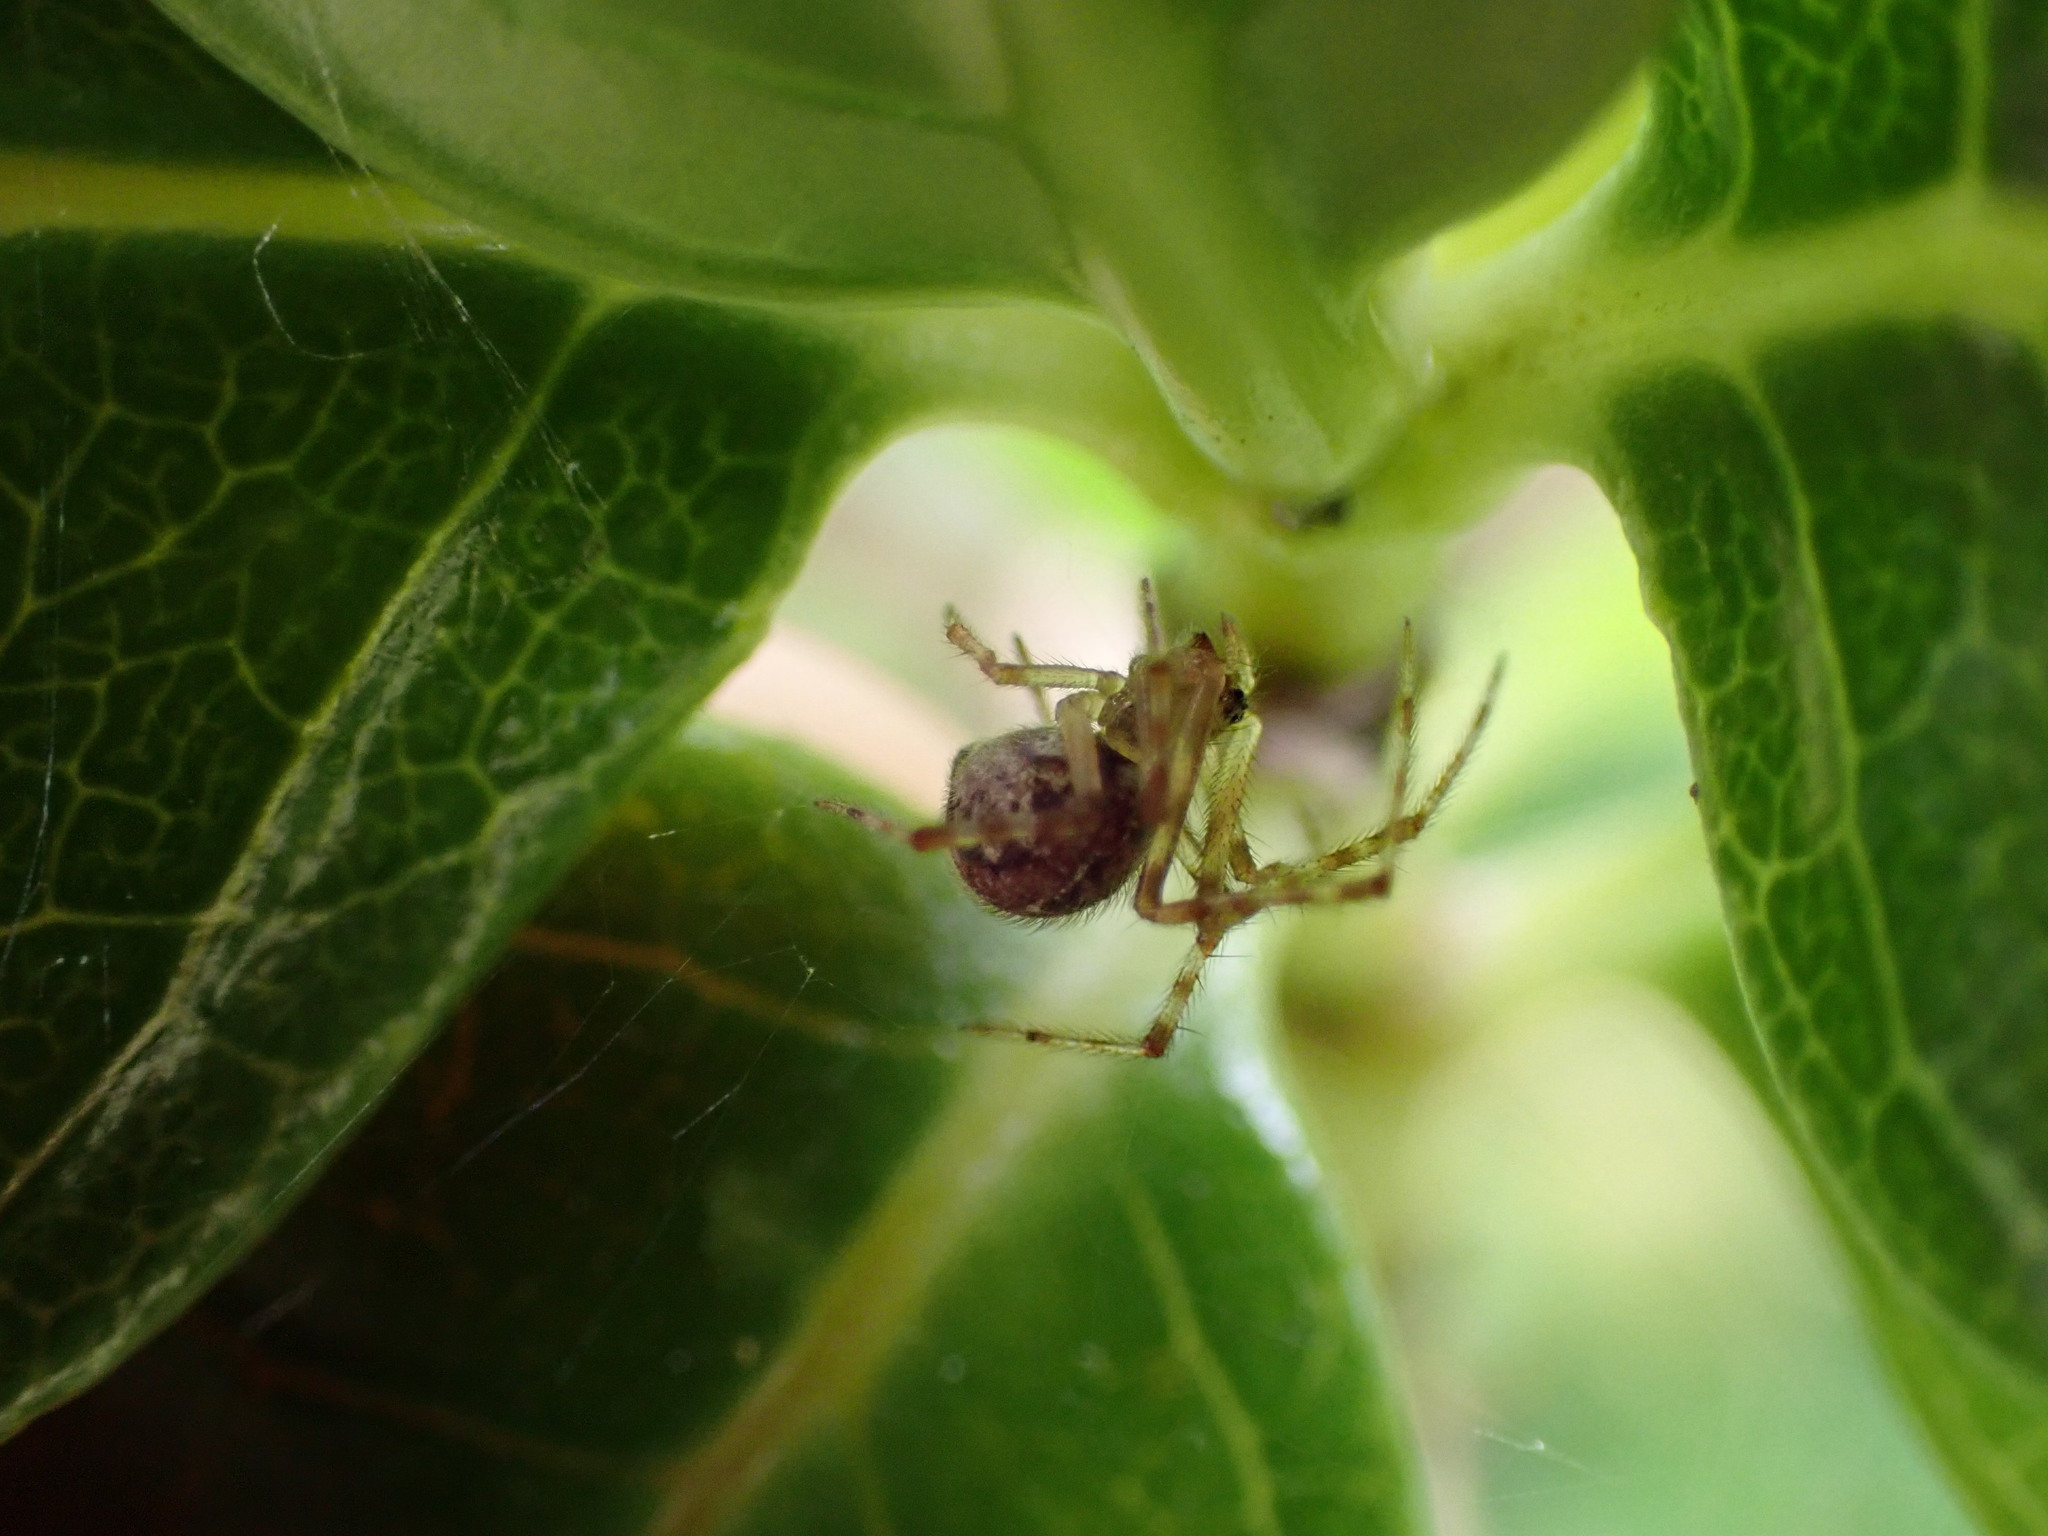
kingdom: Animalia
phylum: Arthropoda
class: Arachnida
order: Araneae
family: Theridiidae
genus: Cryptachaea
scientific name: Cryptachaea veruculata
